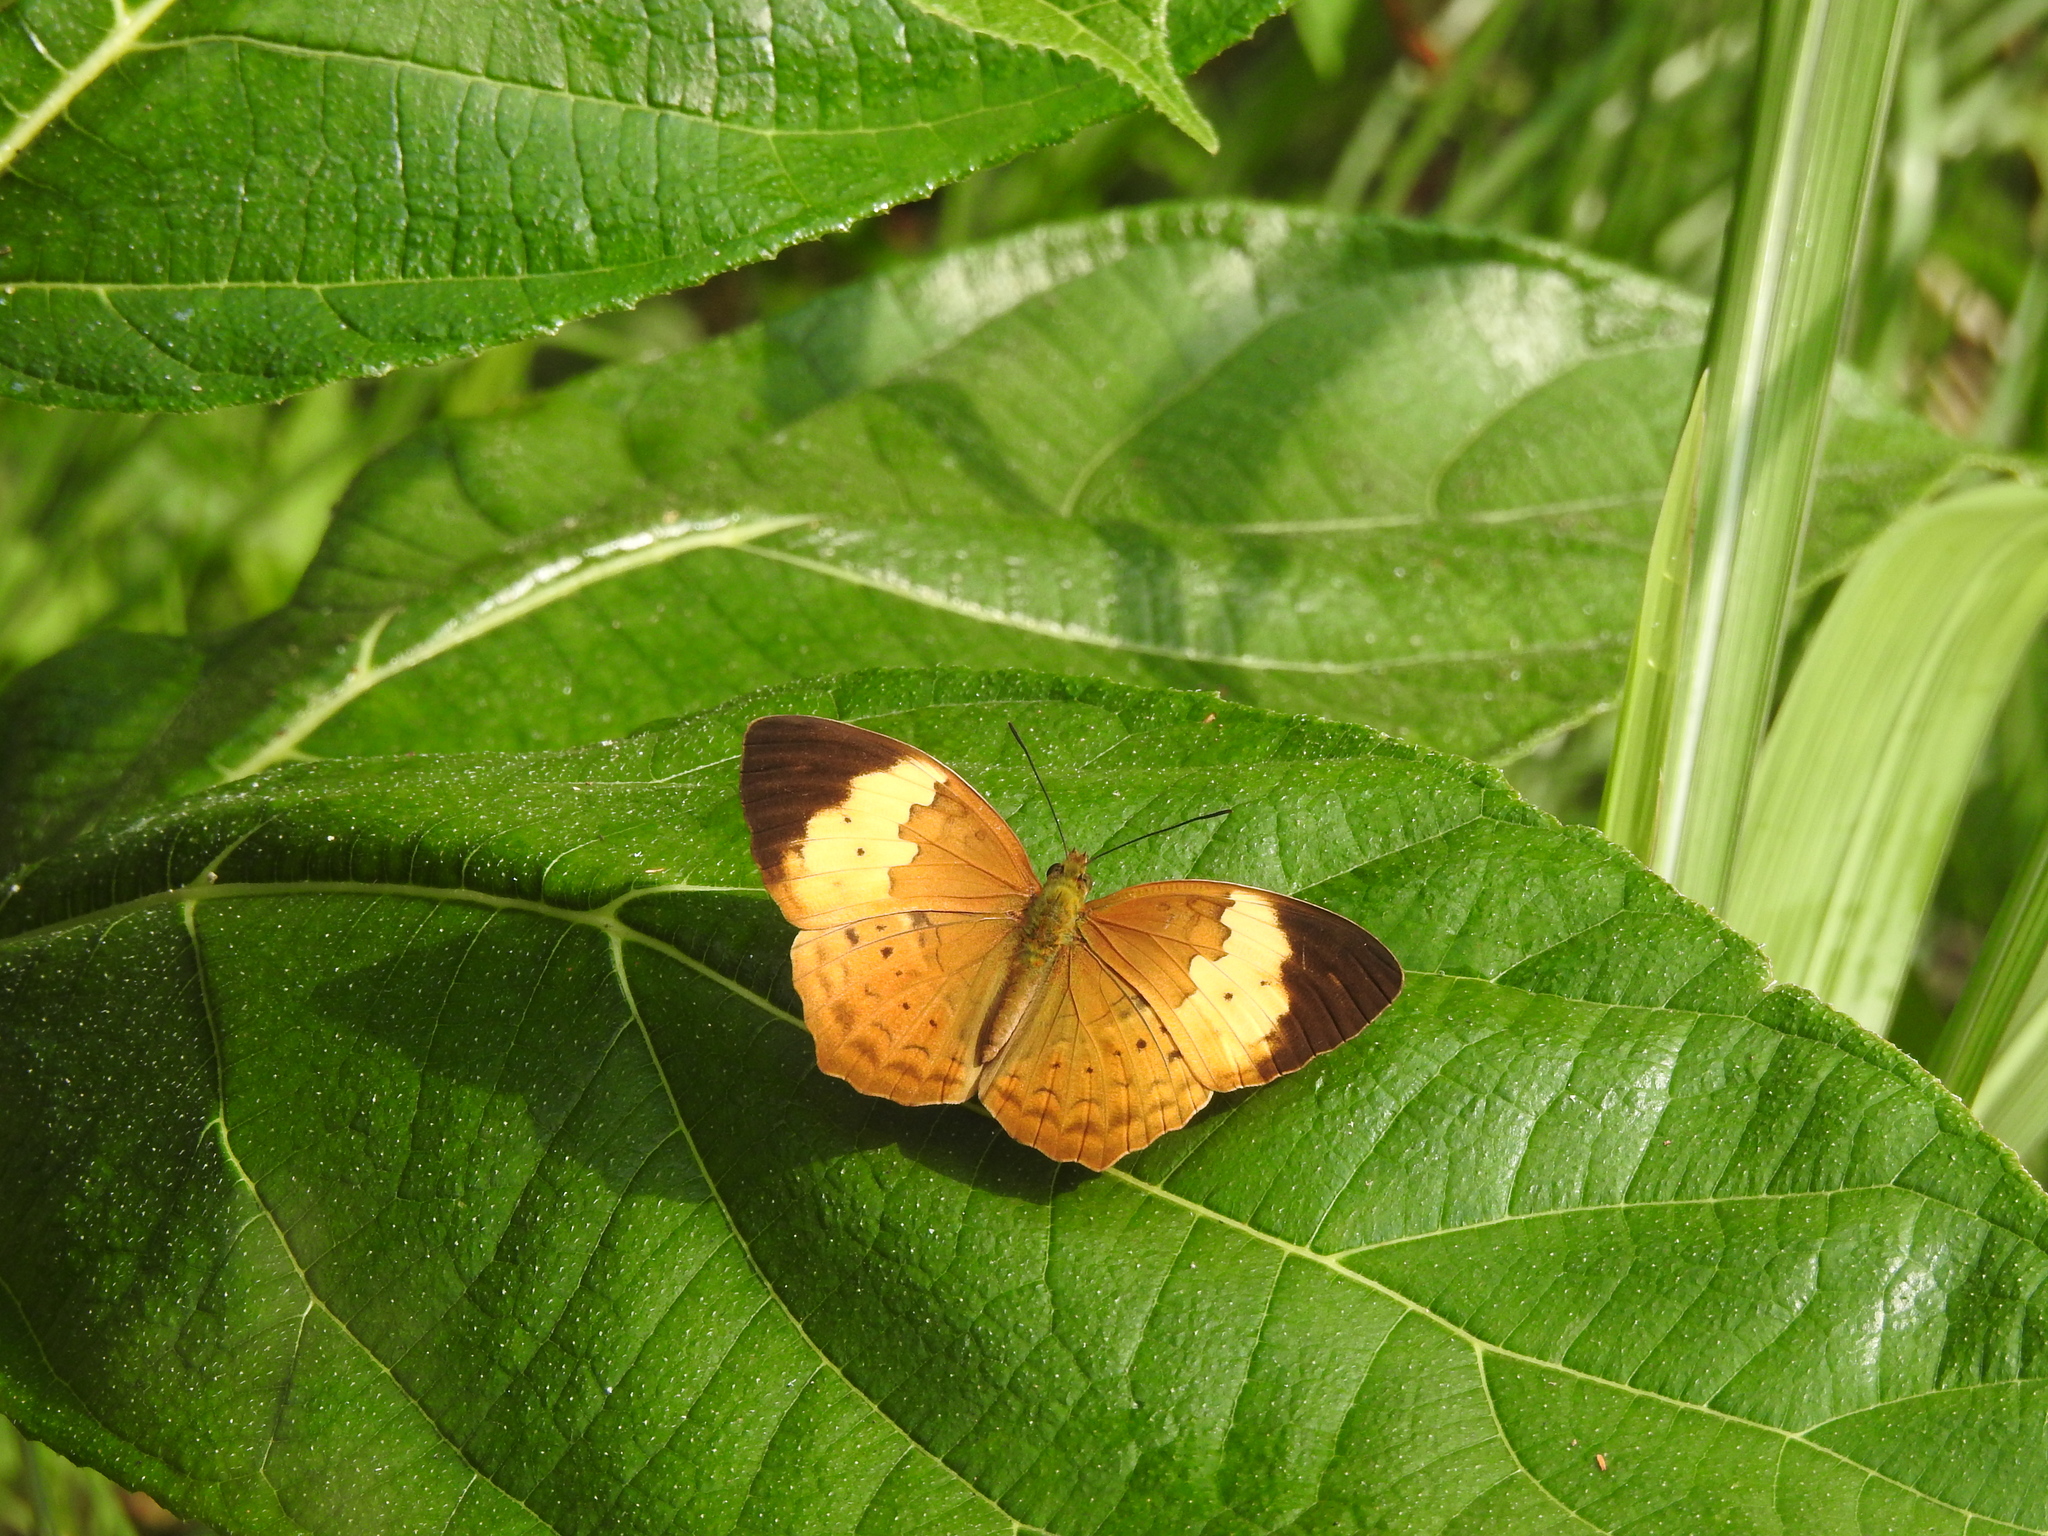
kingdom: Animalia
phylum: Arthropoda
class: Insecta
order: Lepidoptera
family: Nymphalidae
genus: Cupha
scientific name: Cupha erymanthis
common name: Rustic
